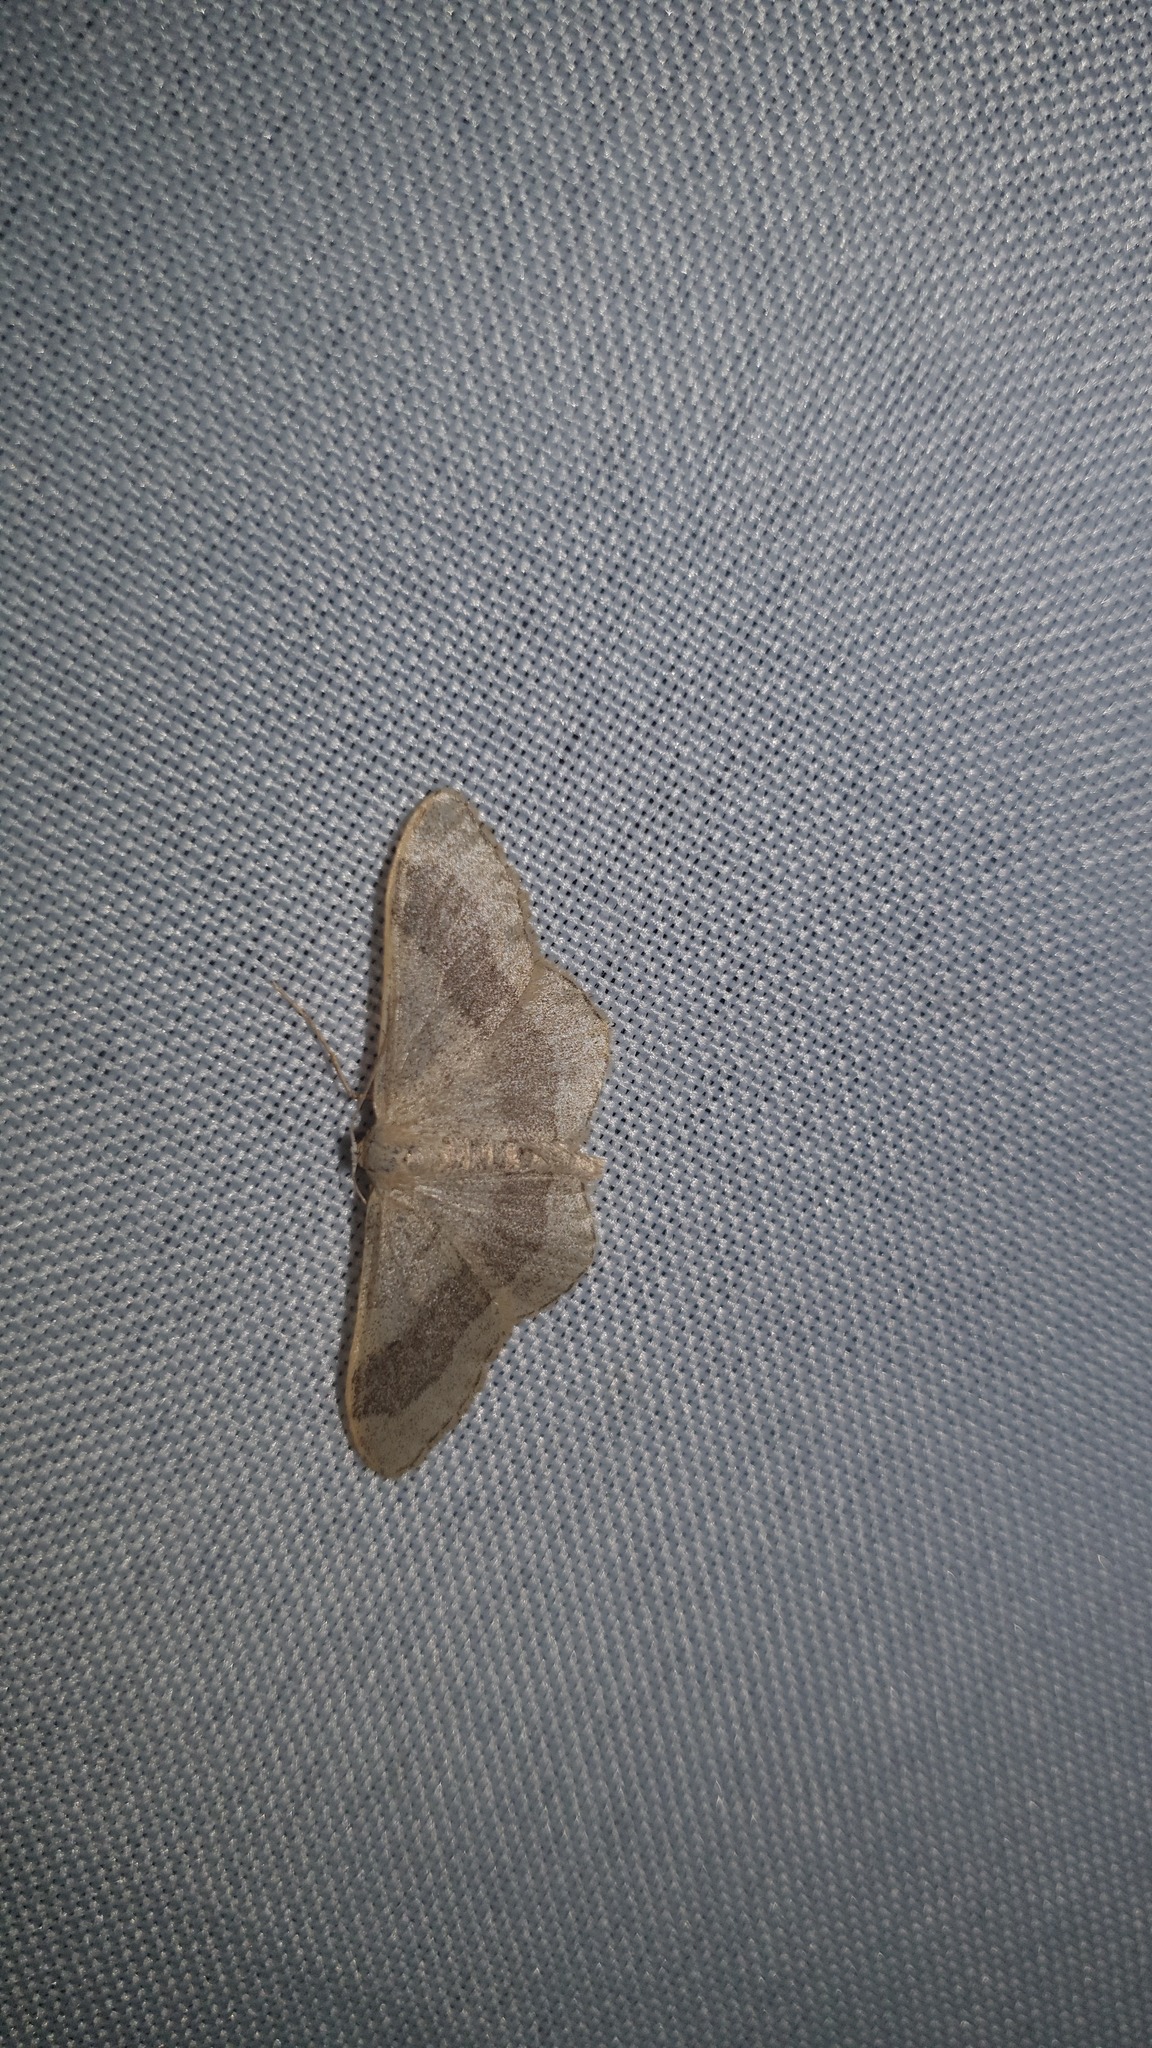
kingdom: Animalia
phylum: Arthropoda
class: Insecta
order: Lepidoptera
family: Geometridae
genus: Idaea
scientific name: Idaea aversata
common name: Riband wave
